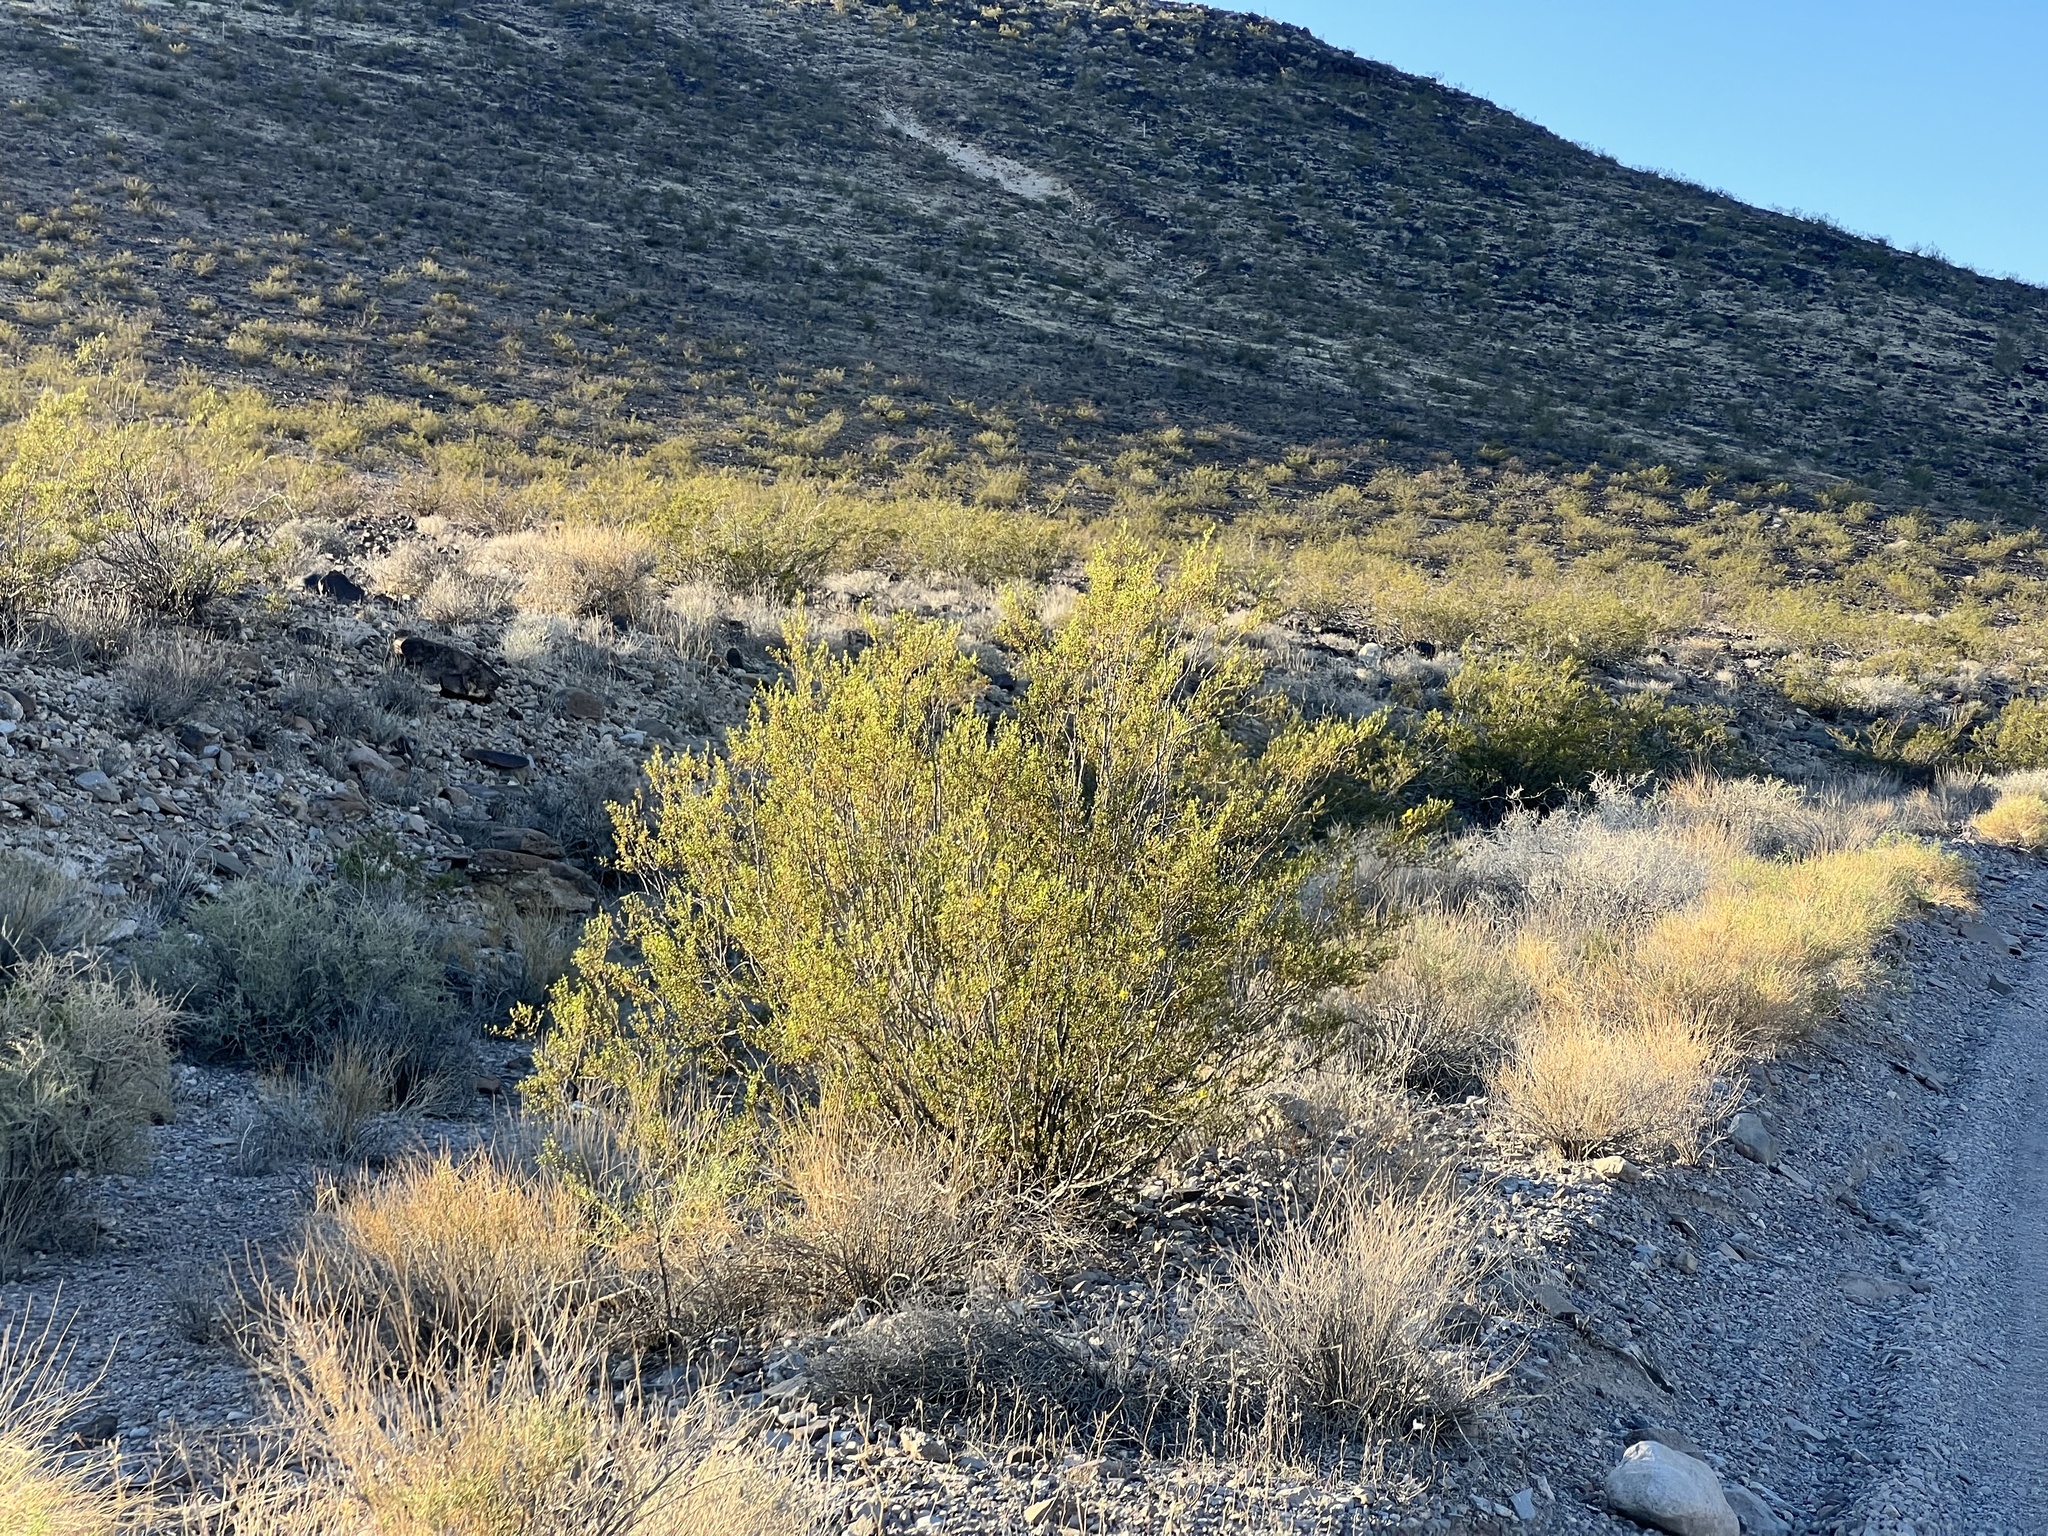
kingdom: Plantae
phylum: Tracheophyta
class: Magnoliopsida
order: Zygophyllales
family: Zygophyllaceae
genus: Larrea
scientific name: Larrea tridentata
